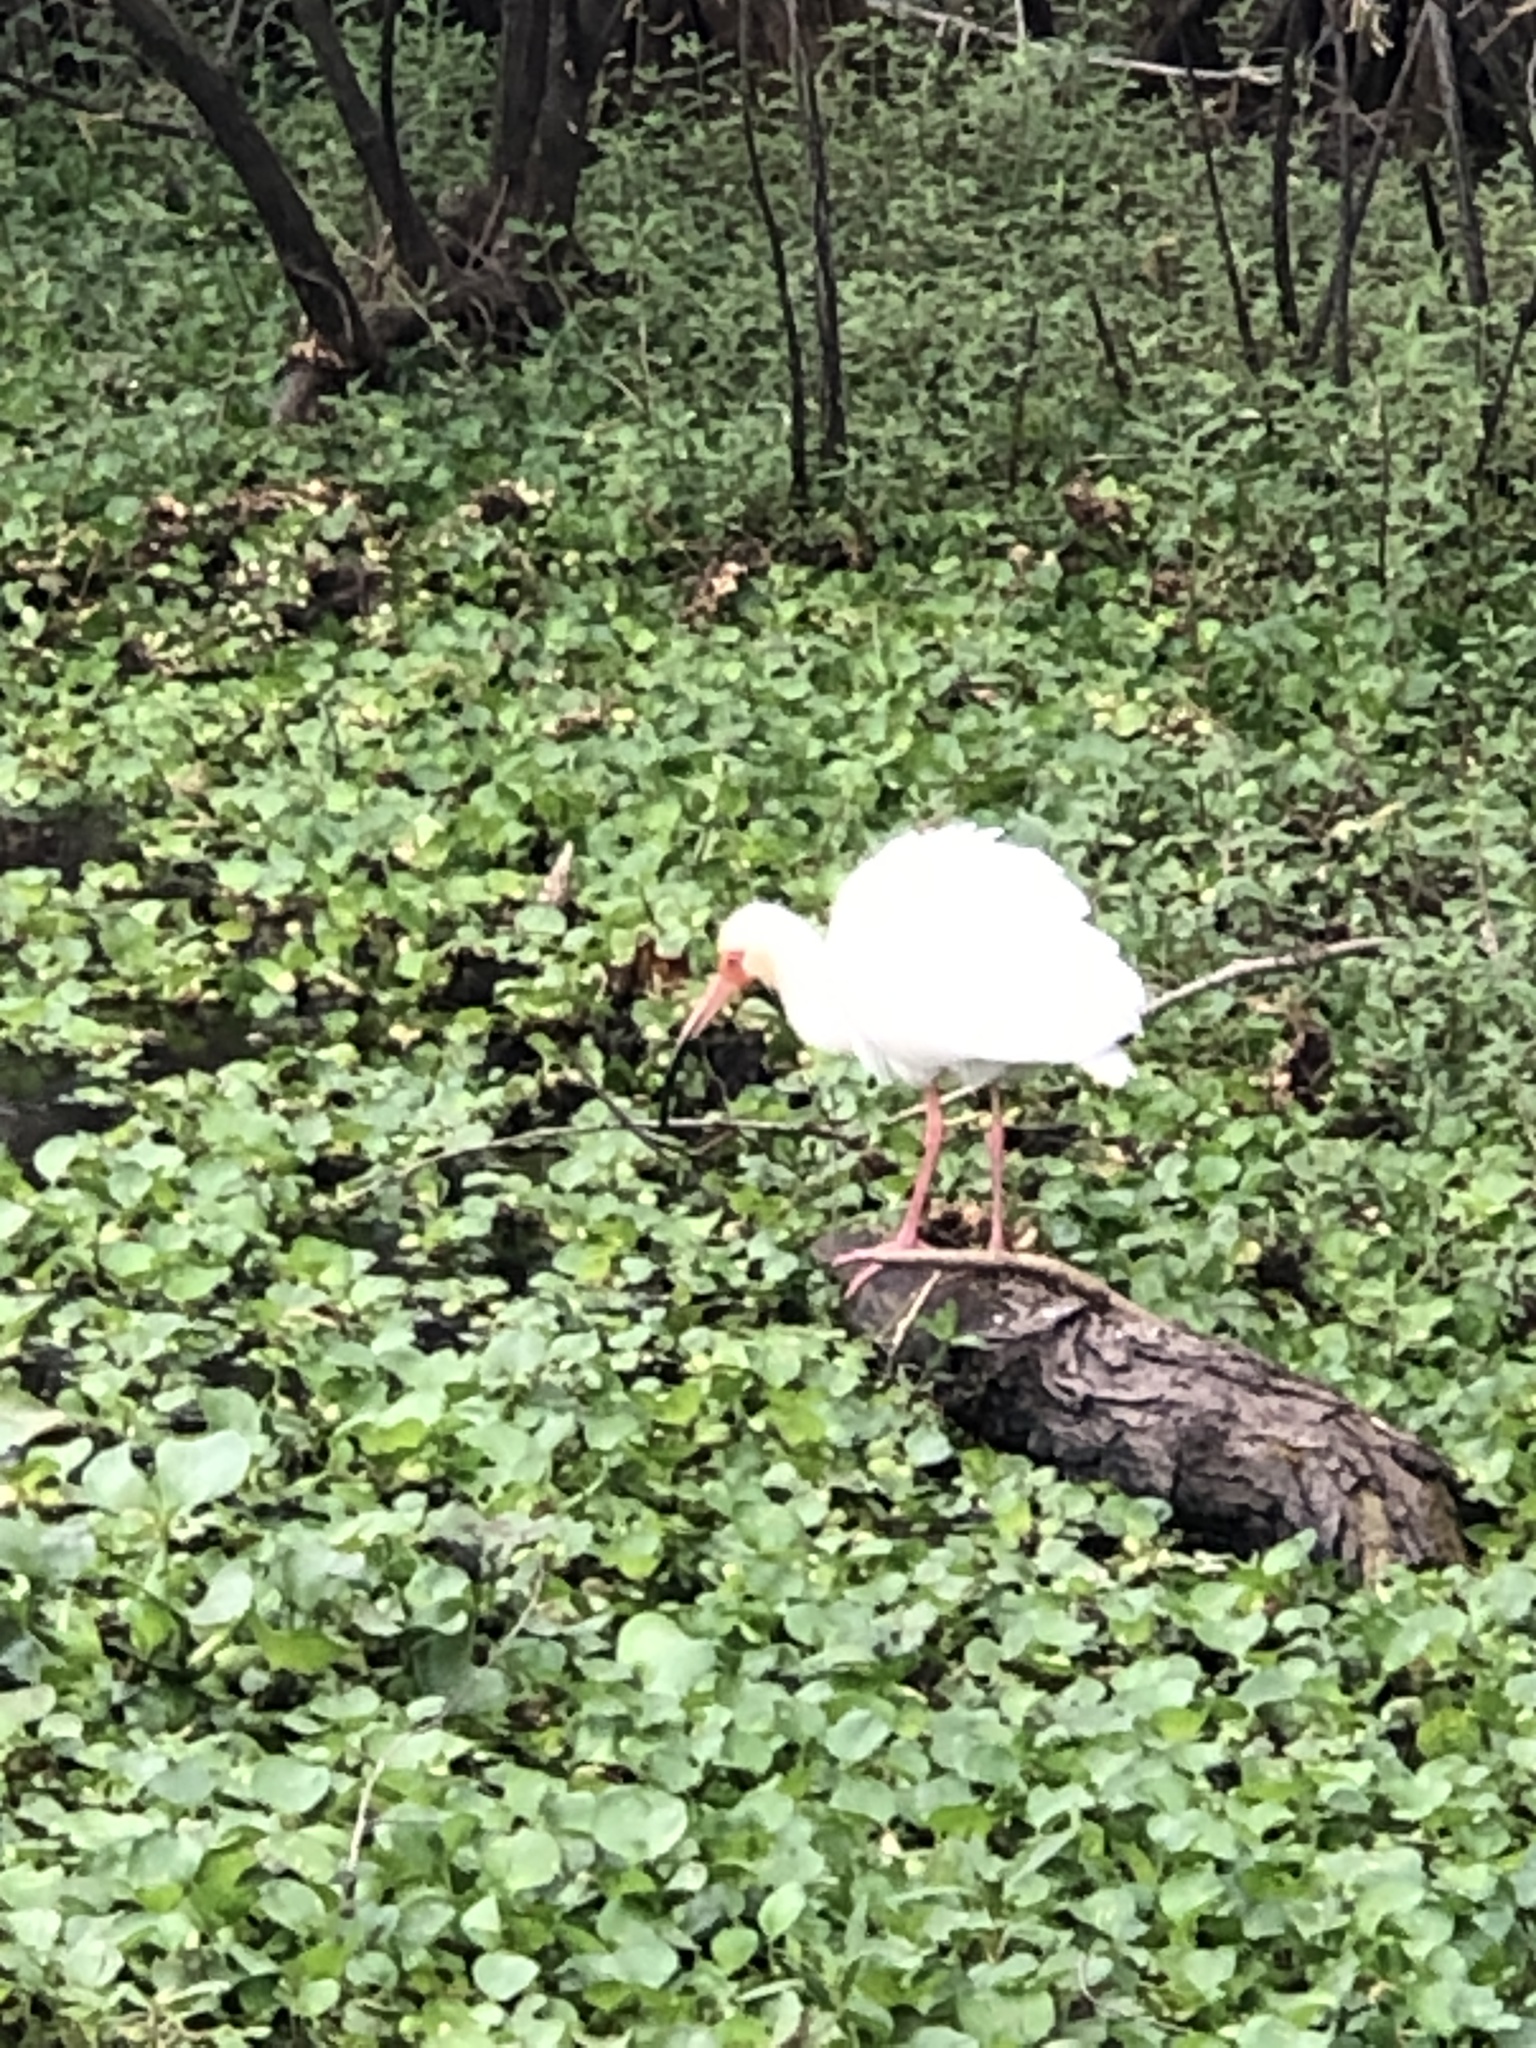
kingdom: Animalia
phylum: Chordata
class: Aves
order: Pelecaniformes
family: Threskiornithidae
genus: Eudocimus
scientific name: Eudocimus albus
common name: White ibis
